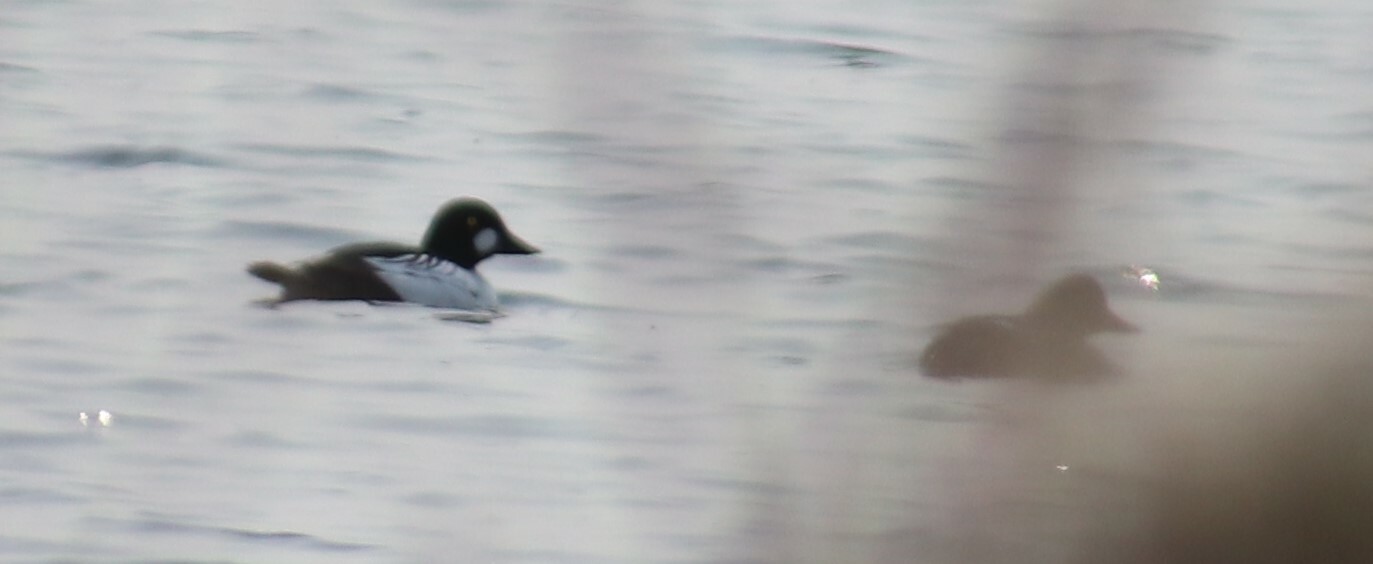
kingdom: Animalia
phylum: Chordata
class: Aves
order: Anseriformes
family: Anatidae
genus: Bucephala
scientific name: Bucephala clangula
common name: Common goldeneye
